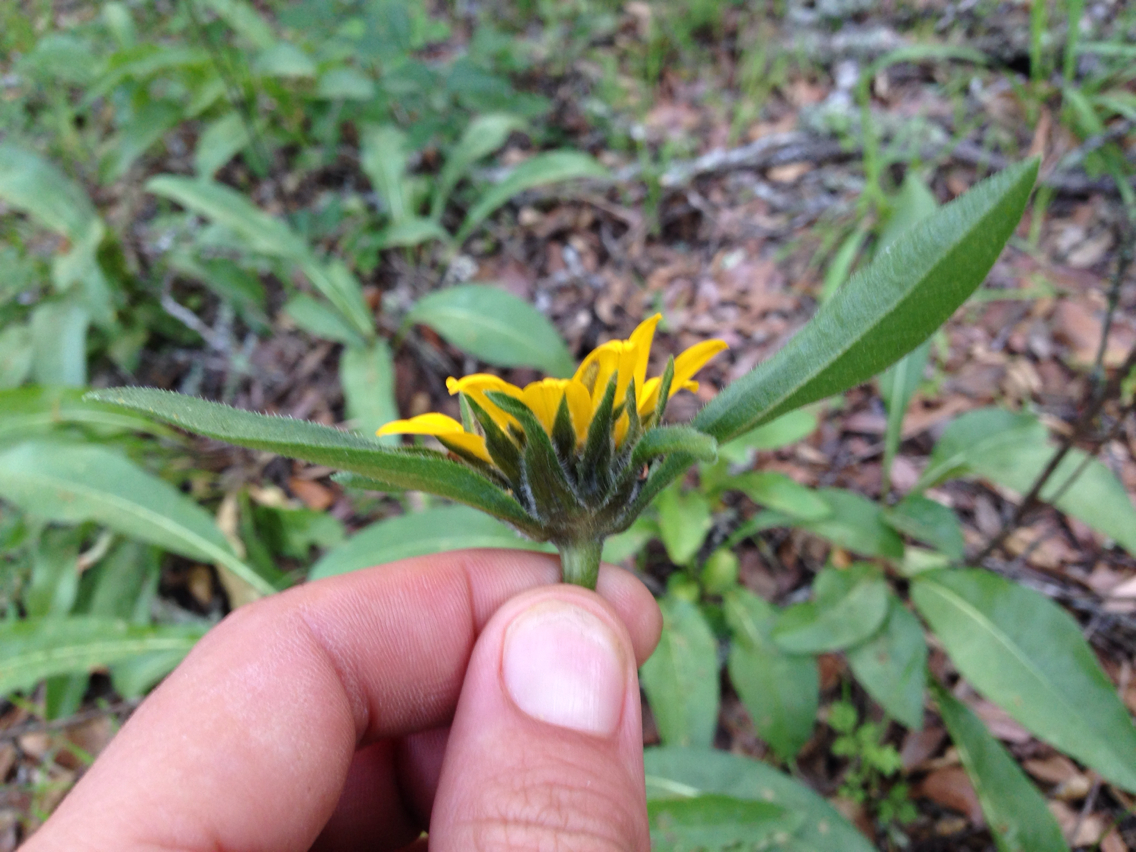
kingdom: Plantae
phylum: Tracheophyta
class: Magnoliopsida
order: Asterales
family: Asteraceae
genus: Helianthella
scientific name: Helianthella castanea
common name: Diablo helianthella
